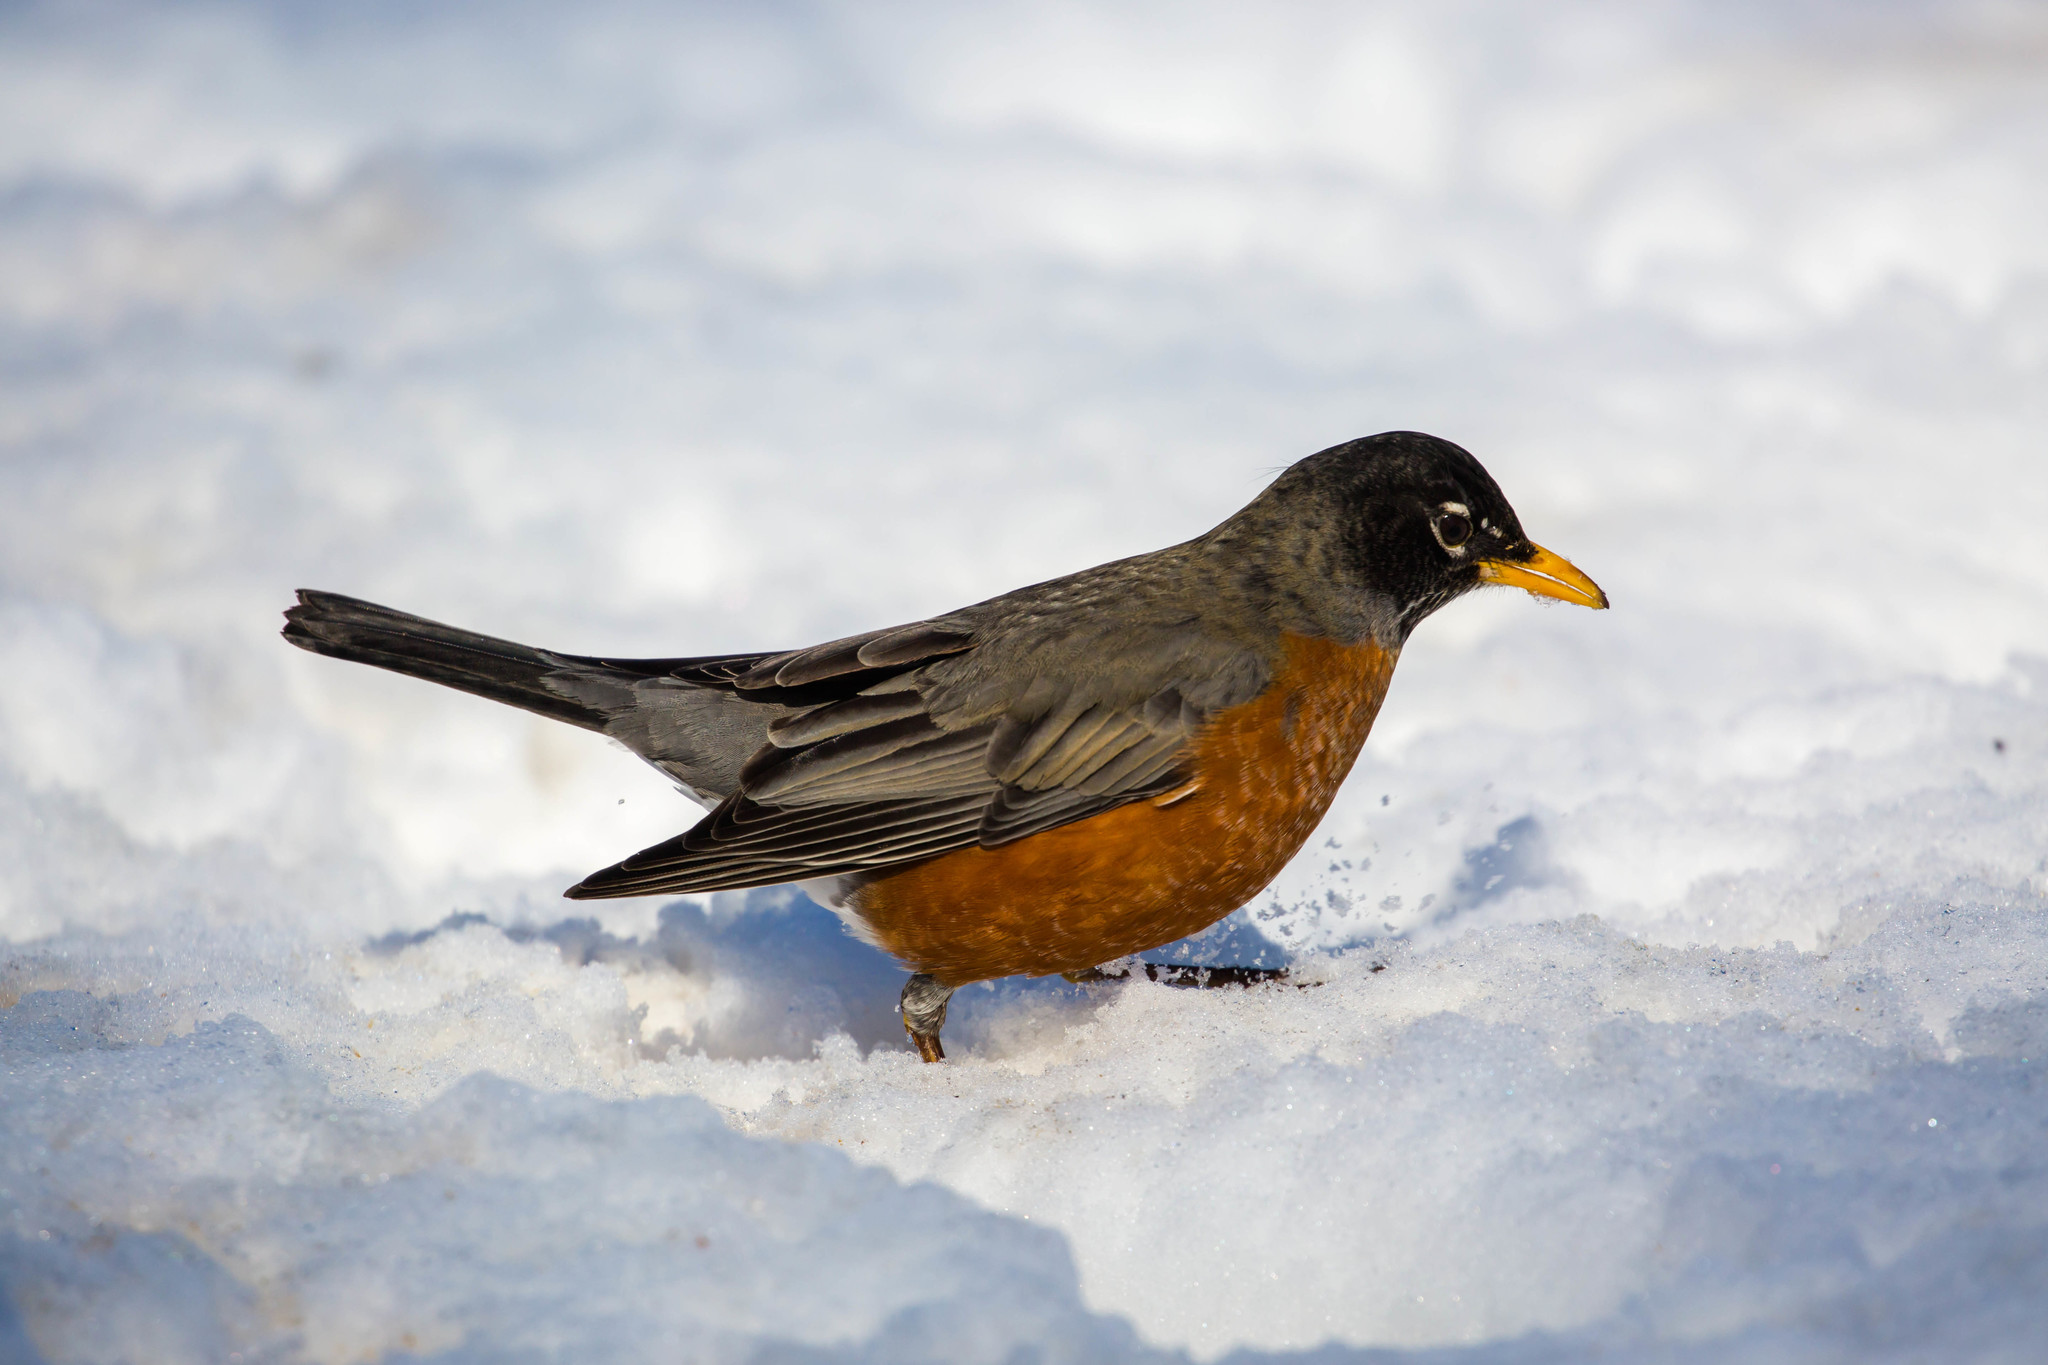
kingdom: Animalia
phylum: Chordata
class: Aves
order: Passeriformes
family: Turdidae
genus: Turdus
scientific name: Turdus migratorius
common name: American robin
